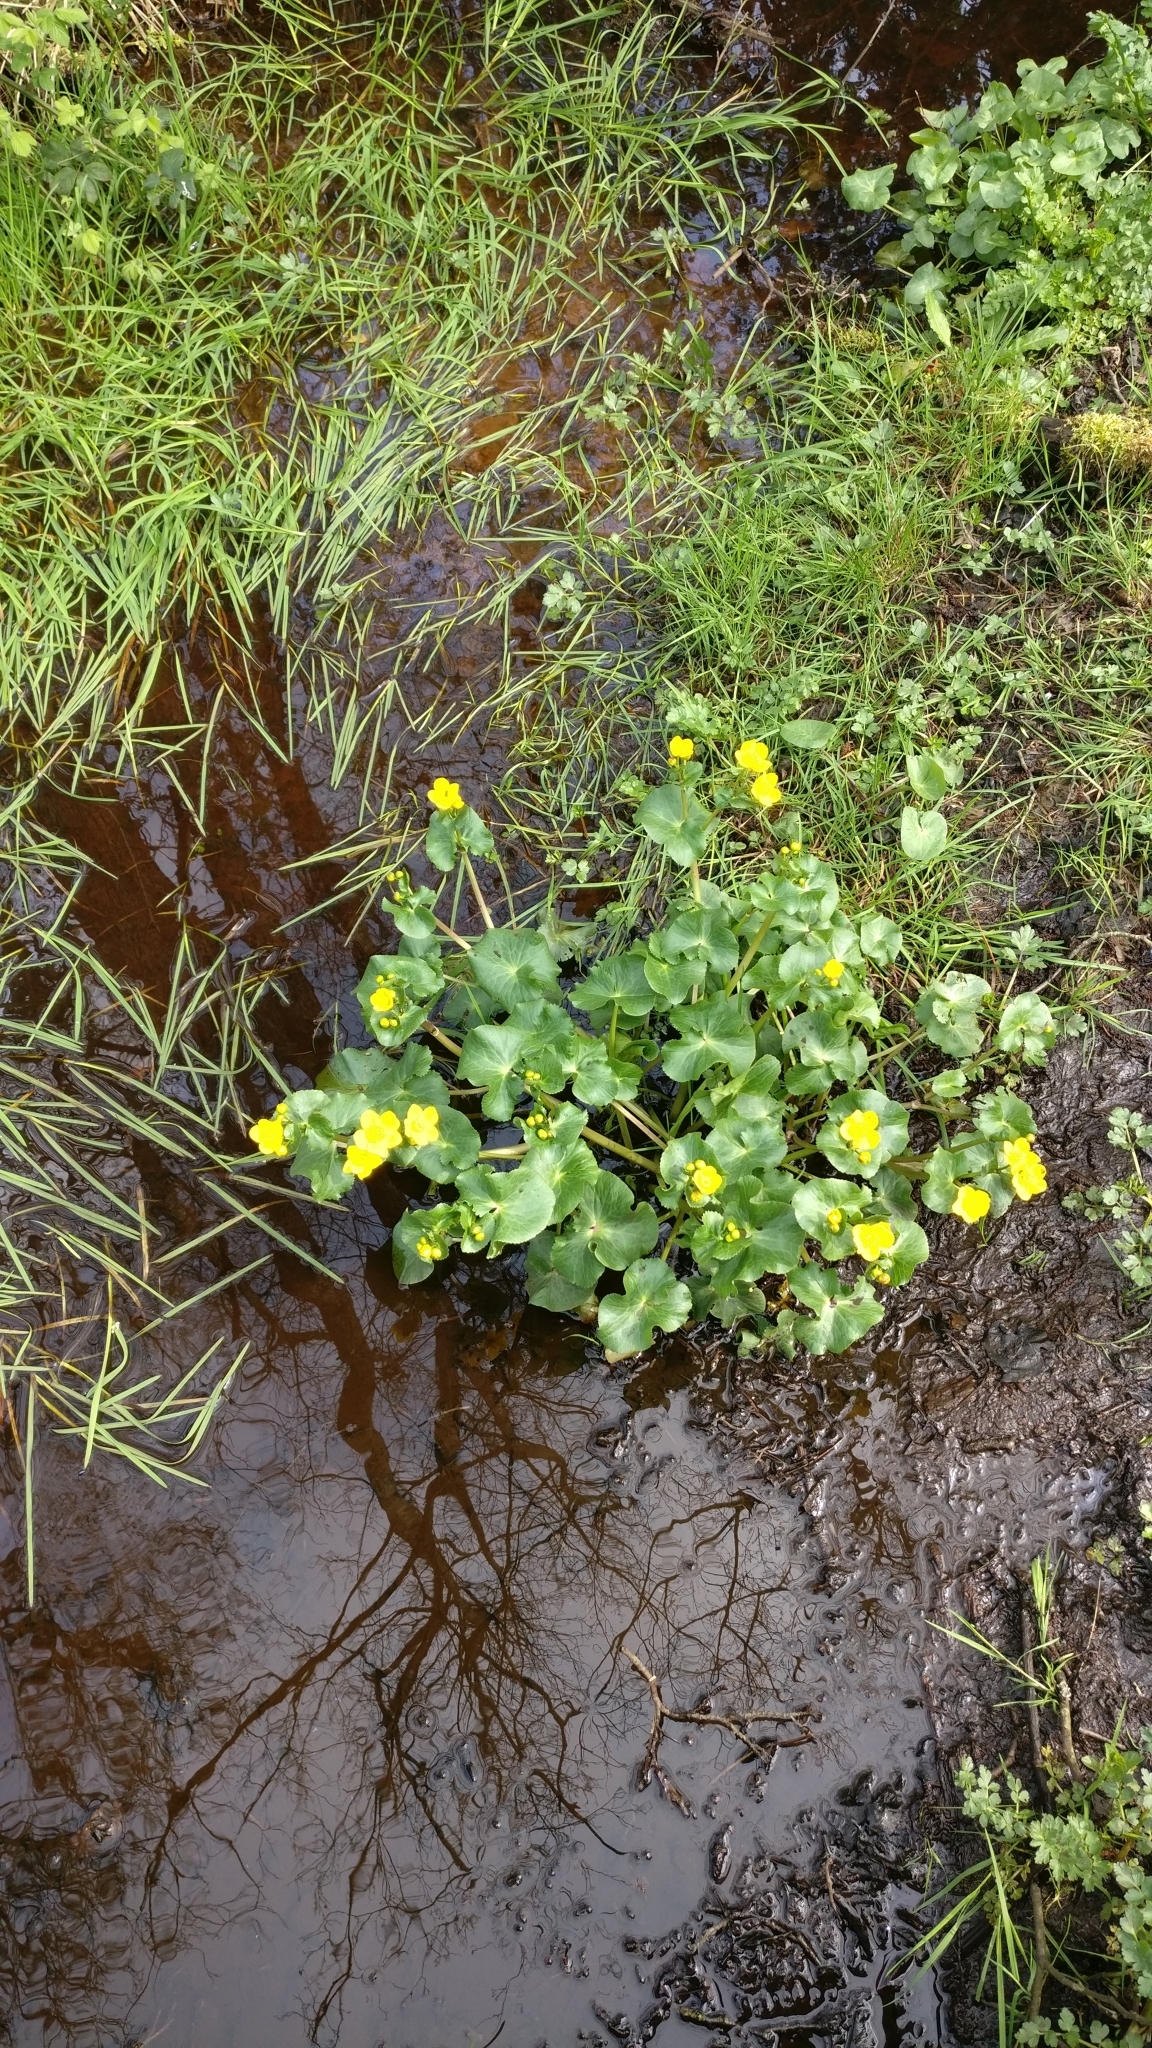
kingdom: Plantae
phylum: Tracheophyta
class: Magnoliopsida
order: Ranunculales
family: Ranunculaceae
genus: Caltha
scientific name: Caltha palustris
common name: Marsh marigold
